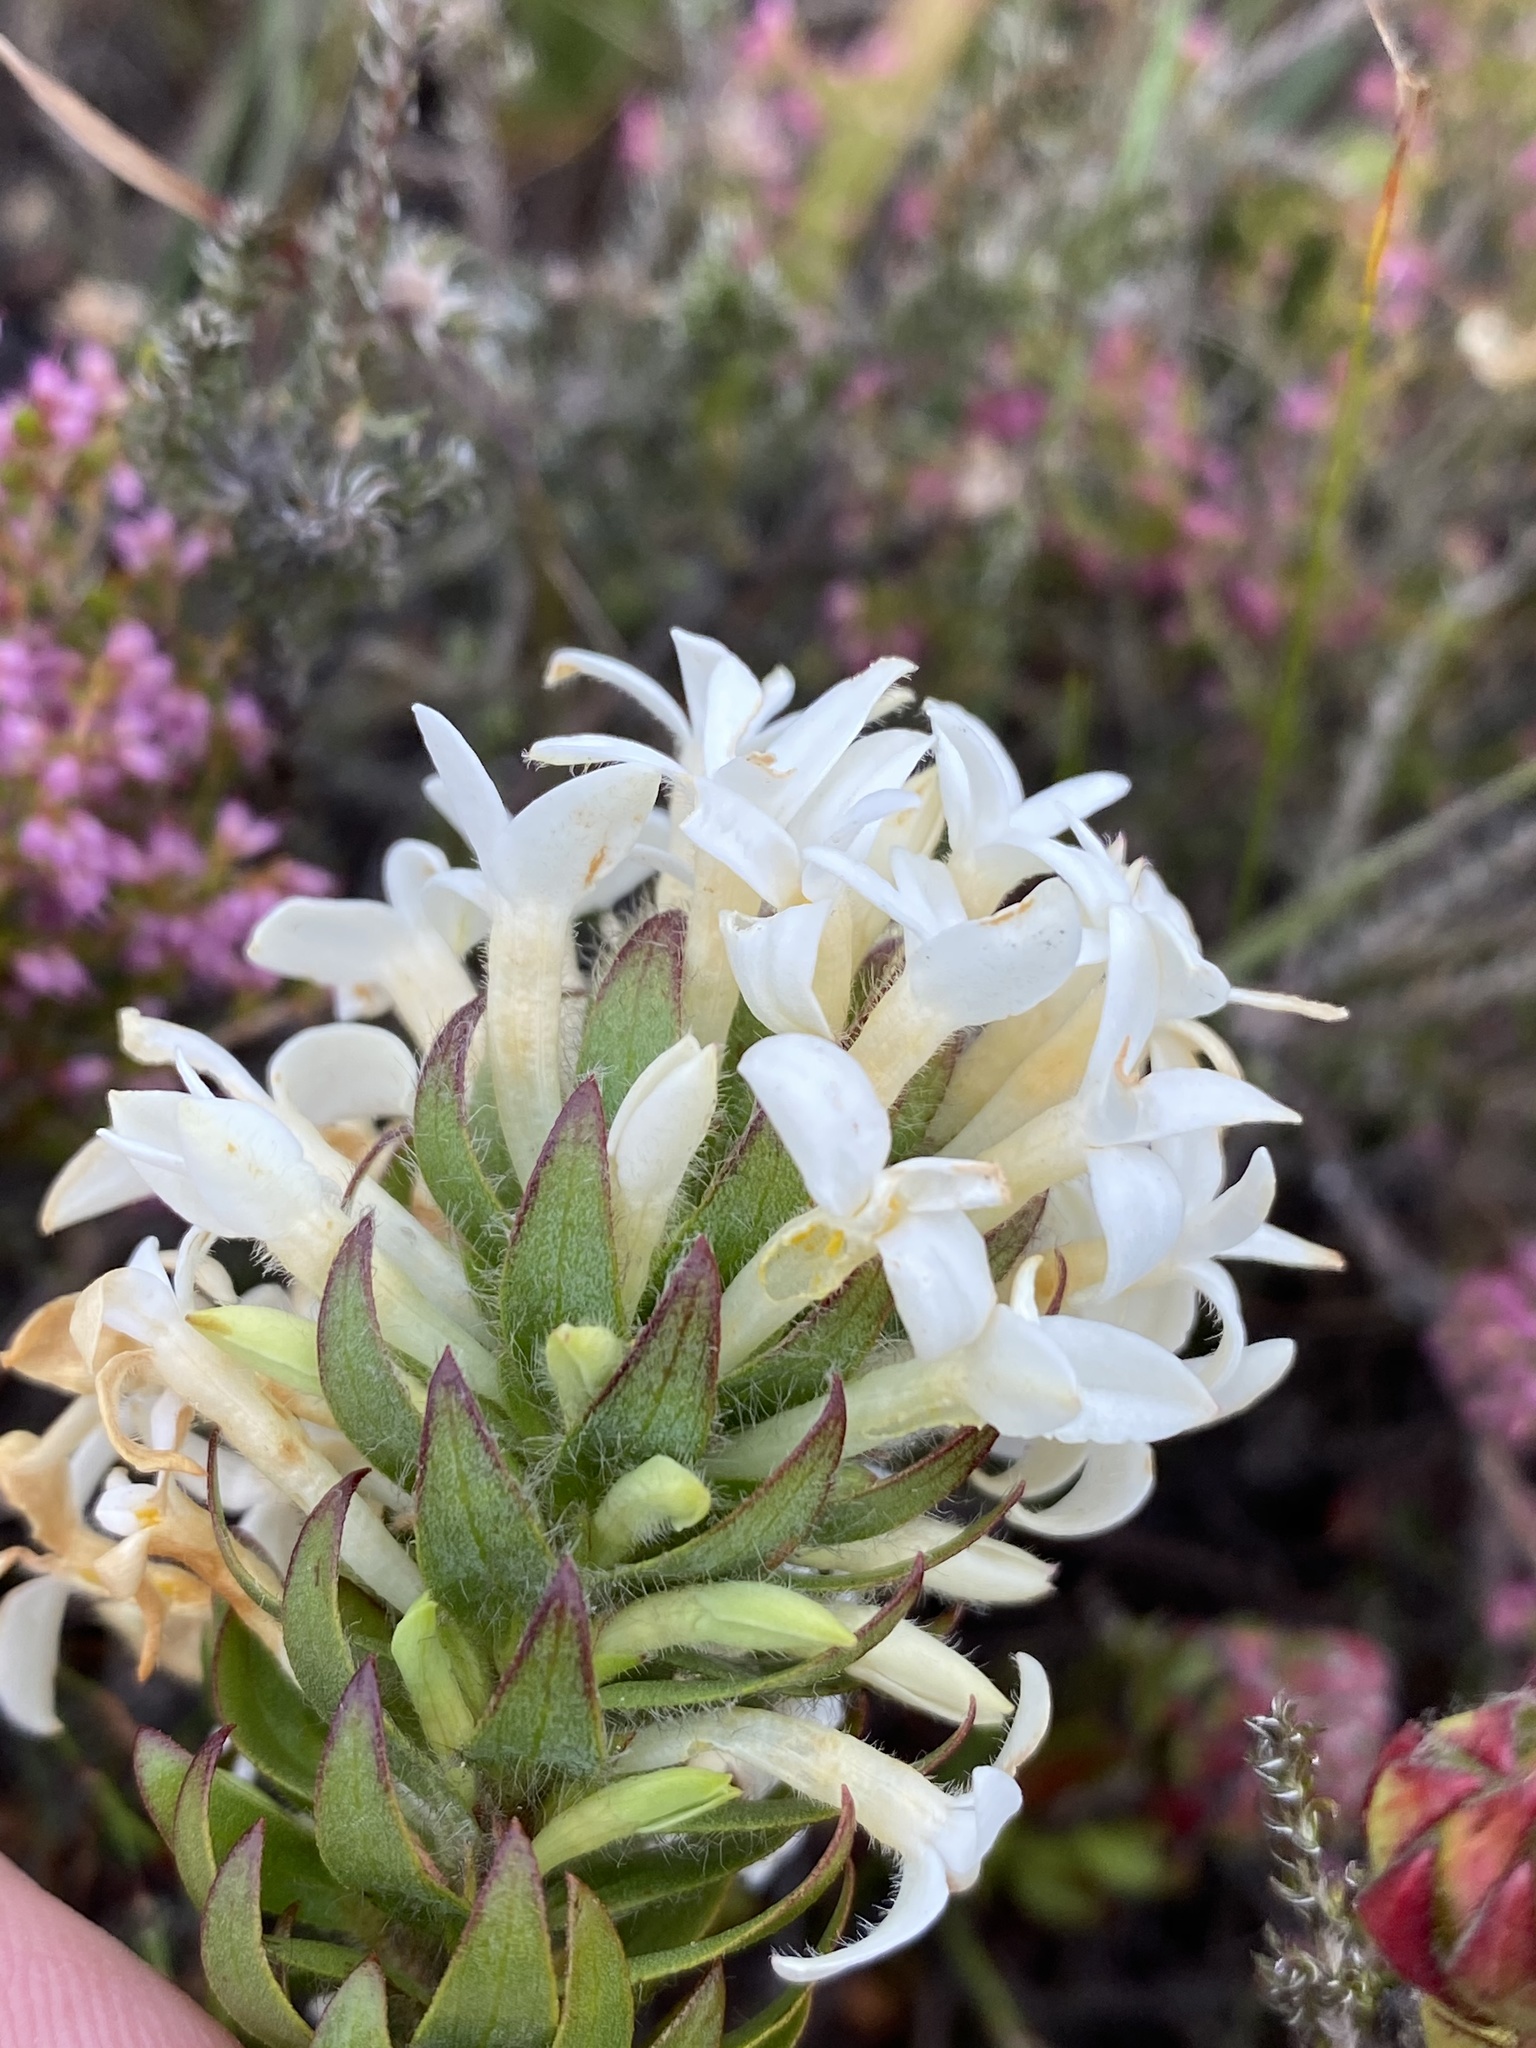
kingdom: Plantae
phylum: Tracheophyta
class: Magnoliopsida
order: Malvales
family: Thymelaeaceae
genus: Gnidia
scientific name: Gnidia ornata
